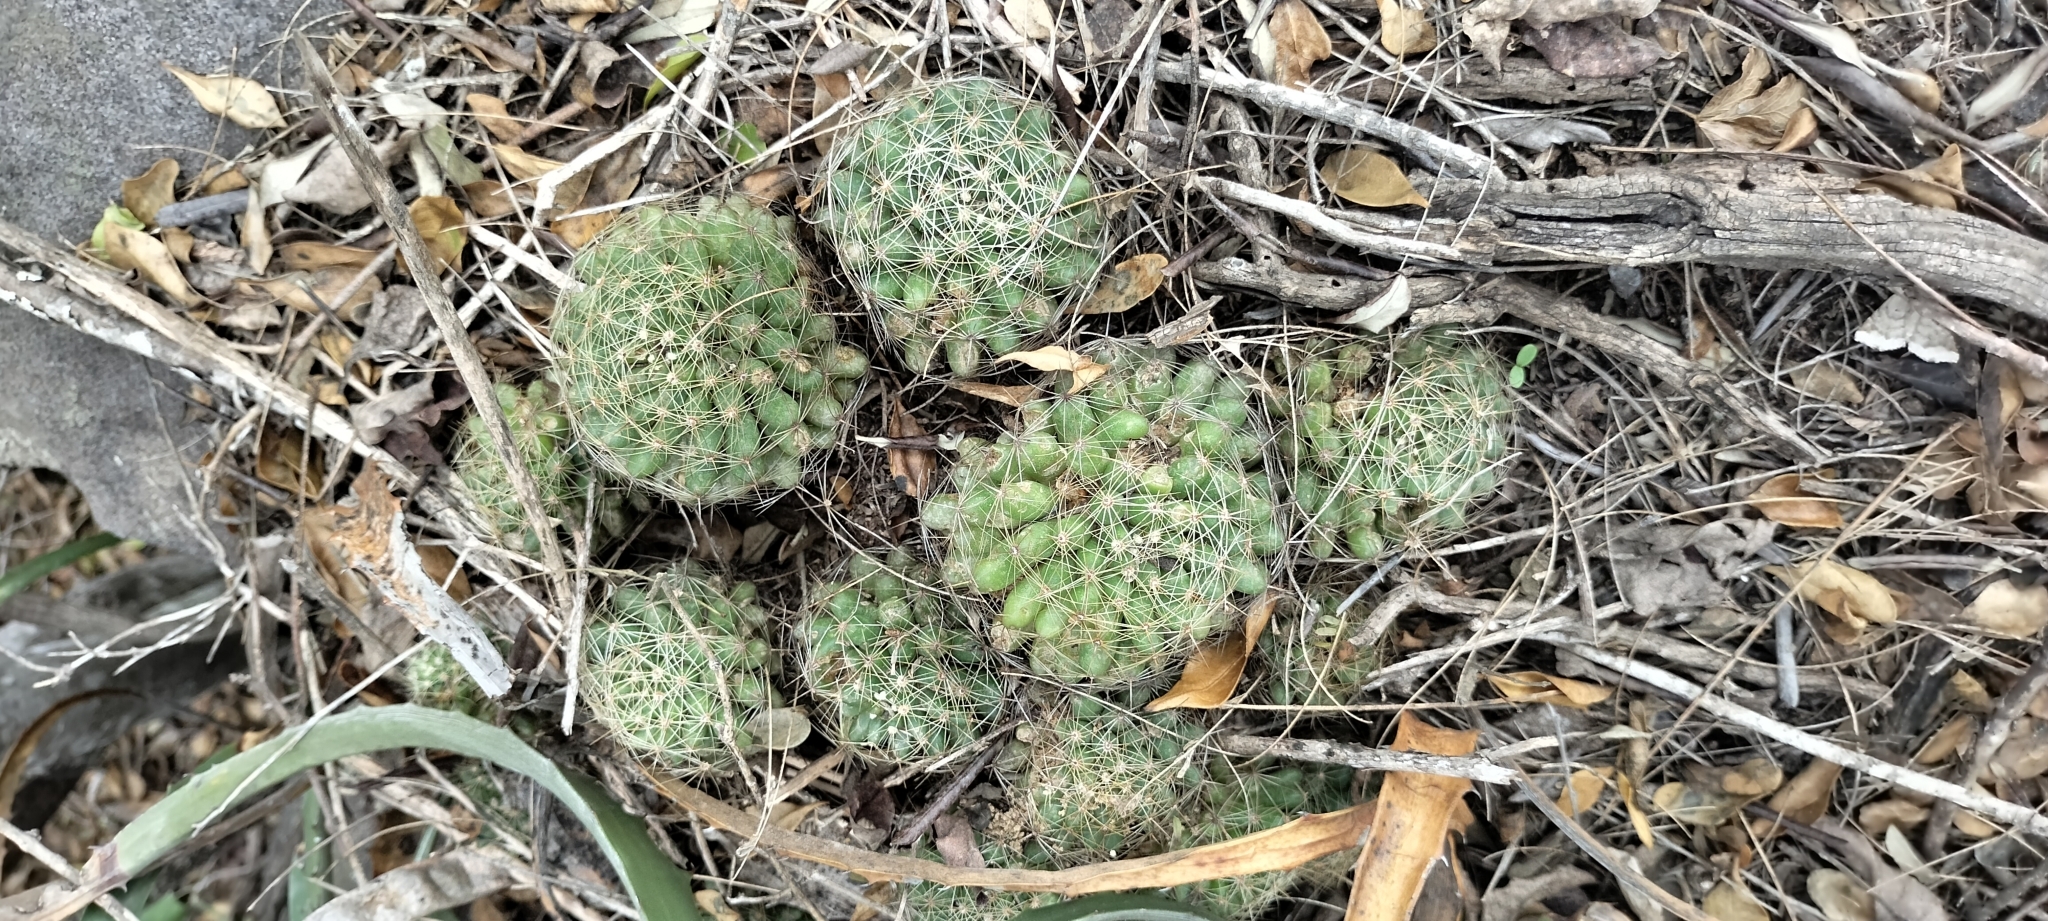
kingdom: Plantae
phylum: Tracheophyta
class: Magnoliopsida
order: Caryophyllales
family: Cactaceae
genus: Mammillaria
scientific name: Mammillaria sphaerica
